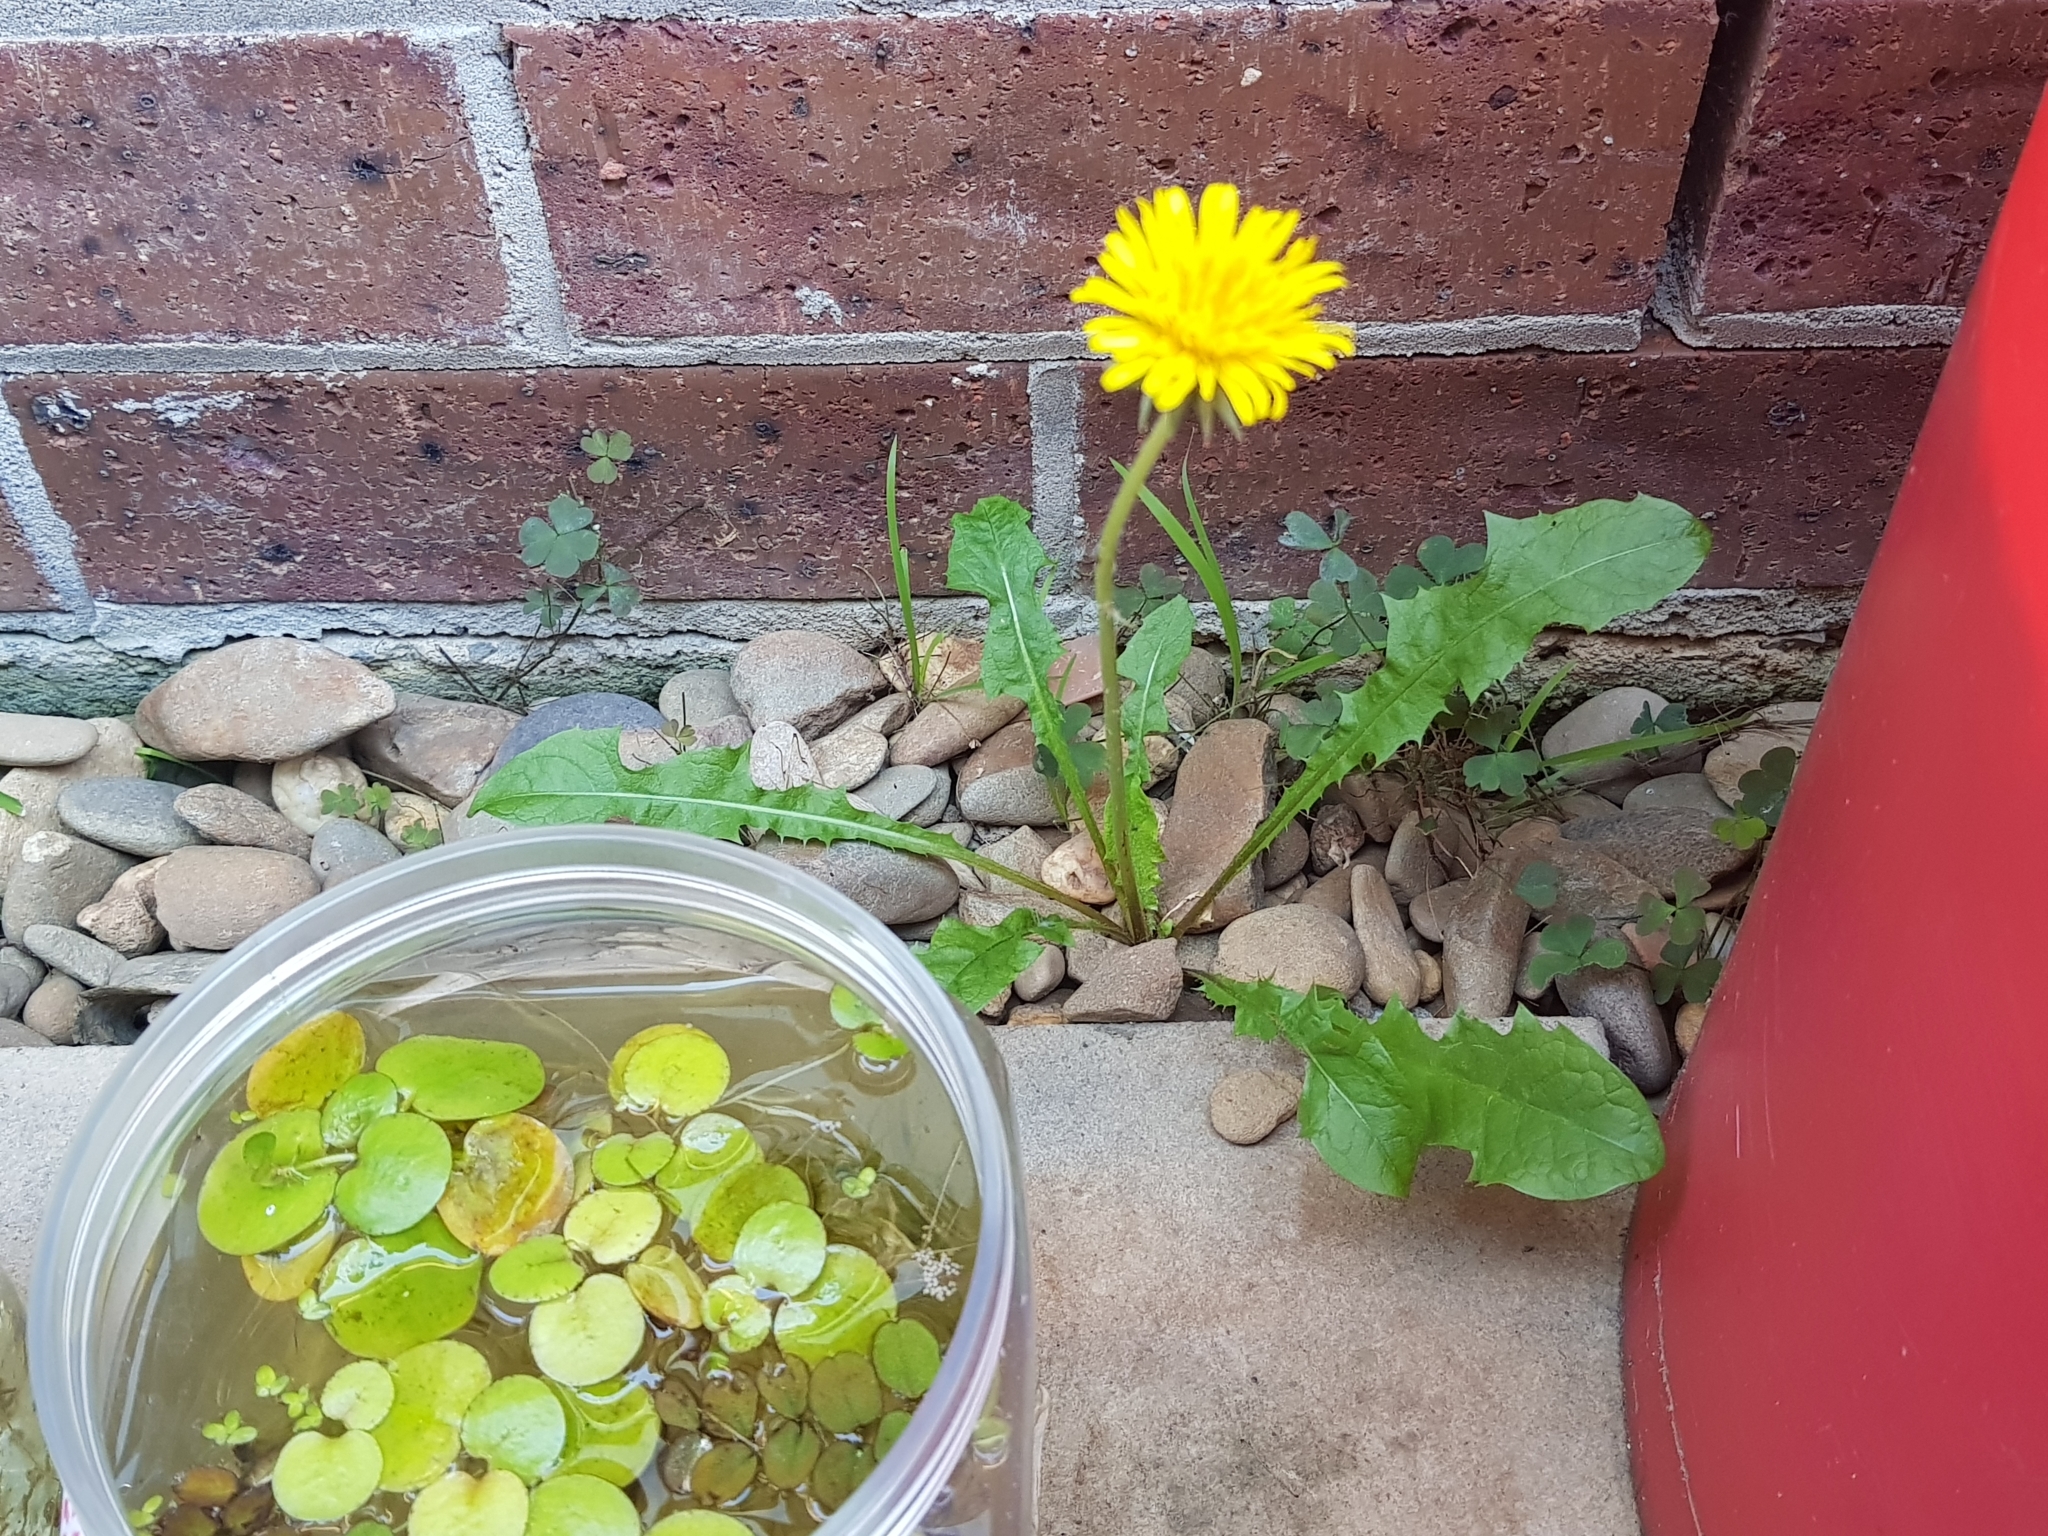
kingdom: Plantae
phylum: Tracheophyta
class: Magnoliopsida
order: Asterales
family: Asteraceae
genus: Taraxacum
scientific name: Taraxacum officinale
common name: Common dandelion
